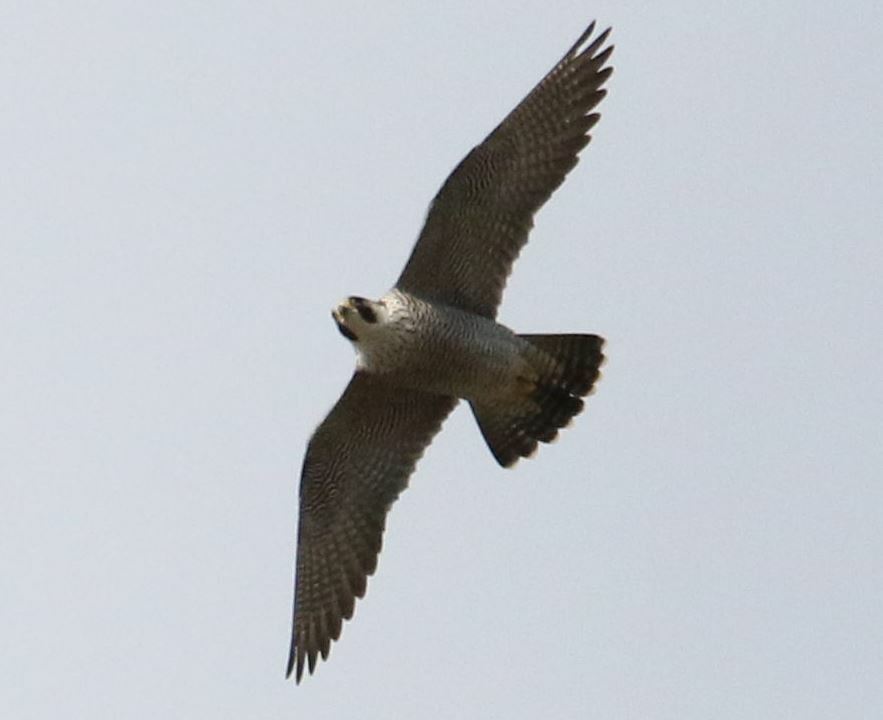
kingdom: Animalia
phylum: Chordata
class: Aves
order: Falconiformes
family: Falconidae
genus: Falco
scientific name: Falco peregrinus
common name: Peregrine falcon
